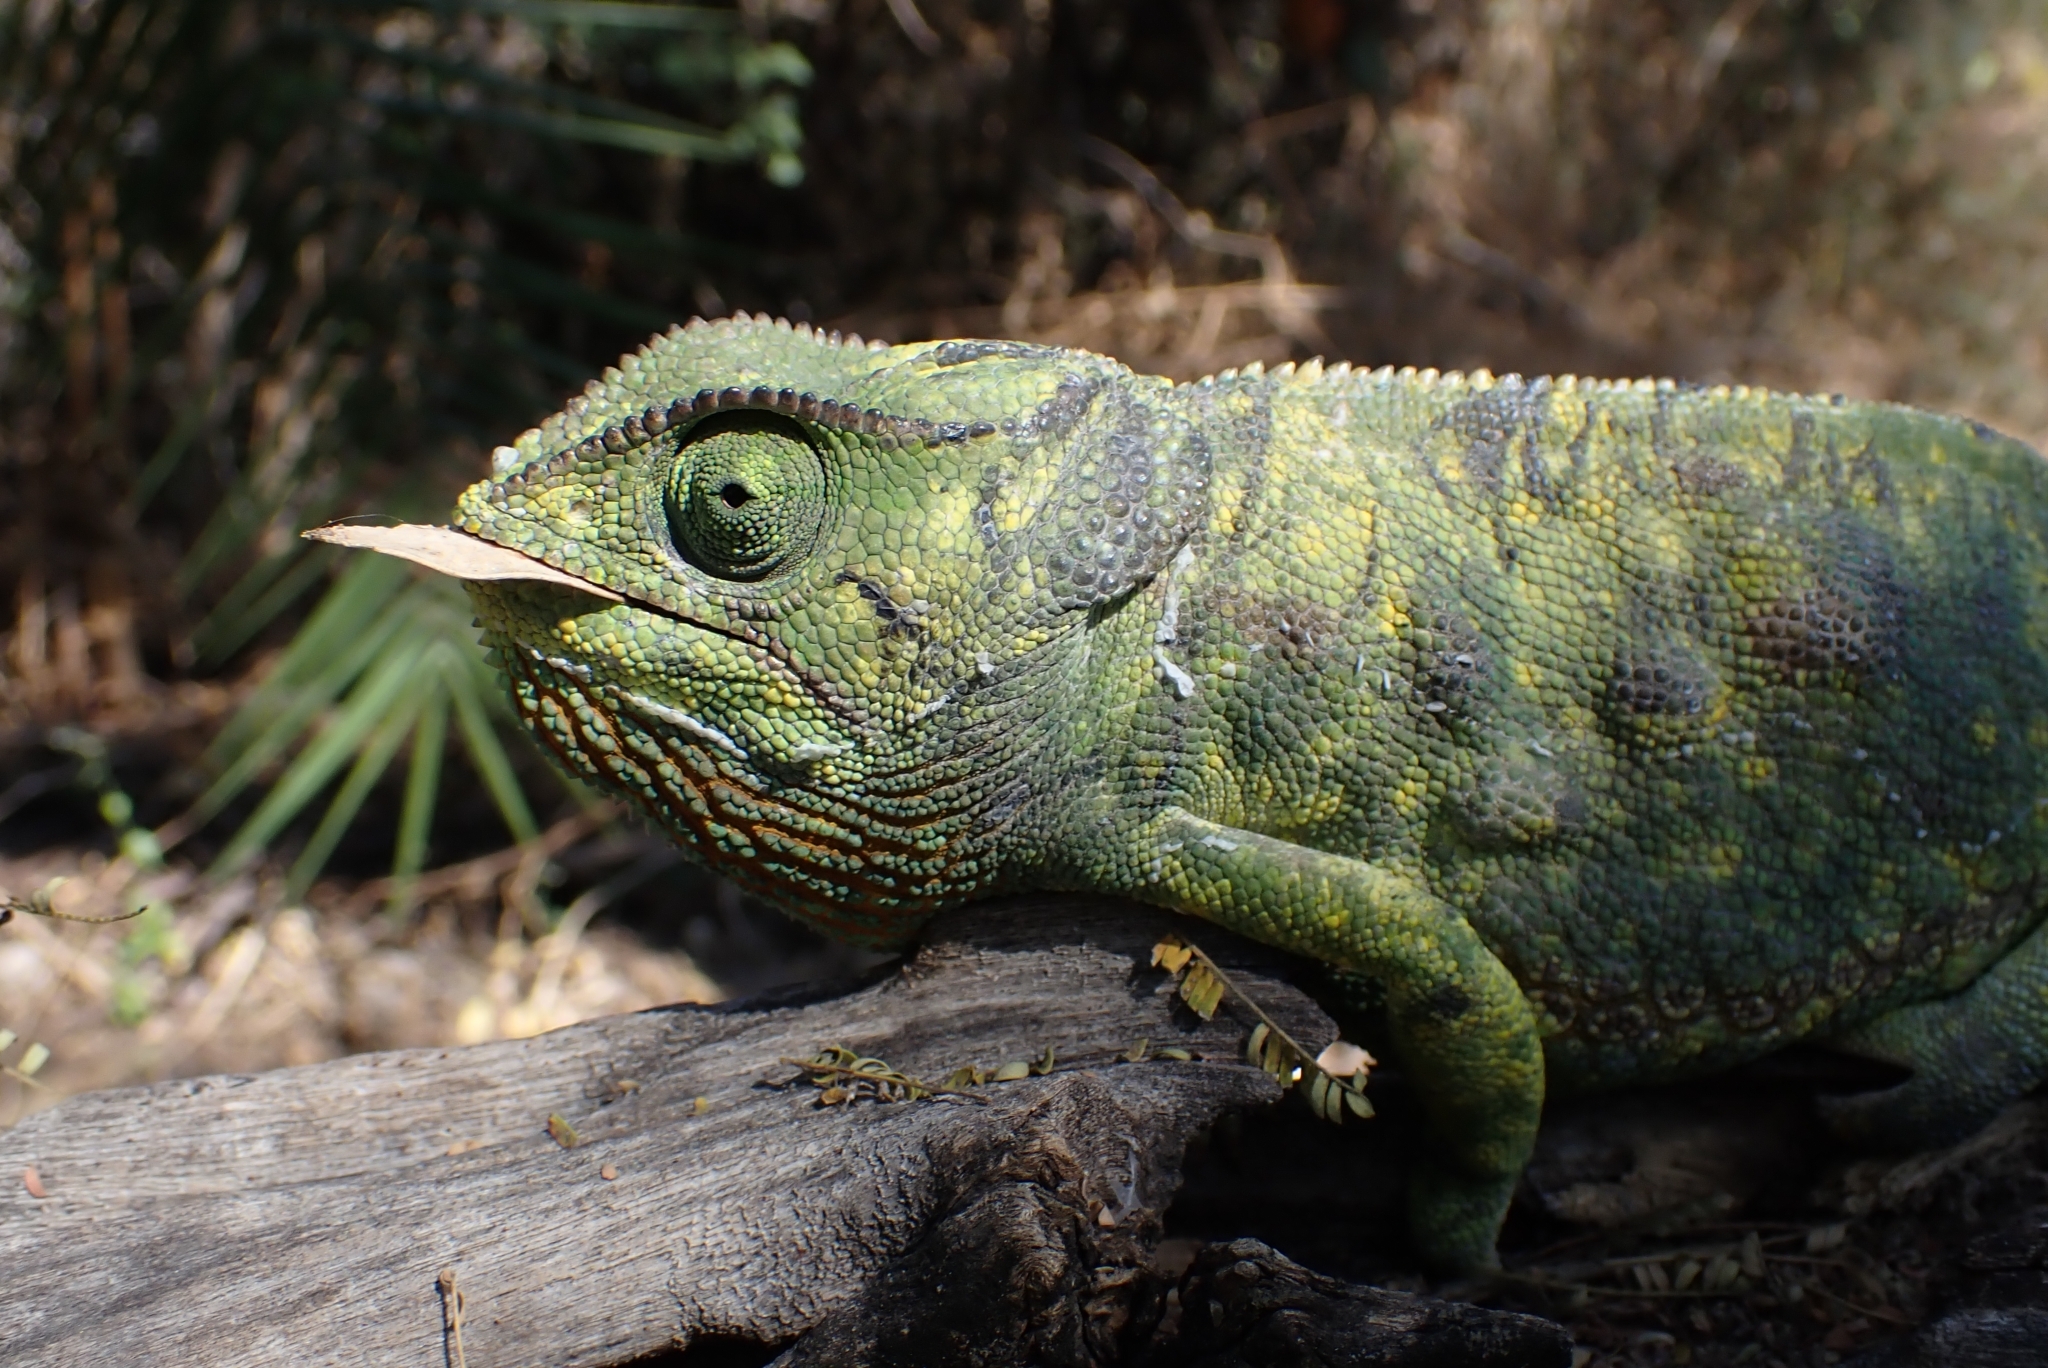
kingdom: Animalia
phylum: Chordata
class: Squamata
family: Chamaeleonidae
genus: Chamaeleo
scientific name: Chamaeleo dilepis
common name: Flapneck chameleon
